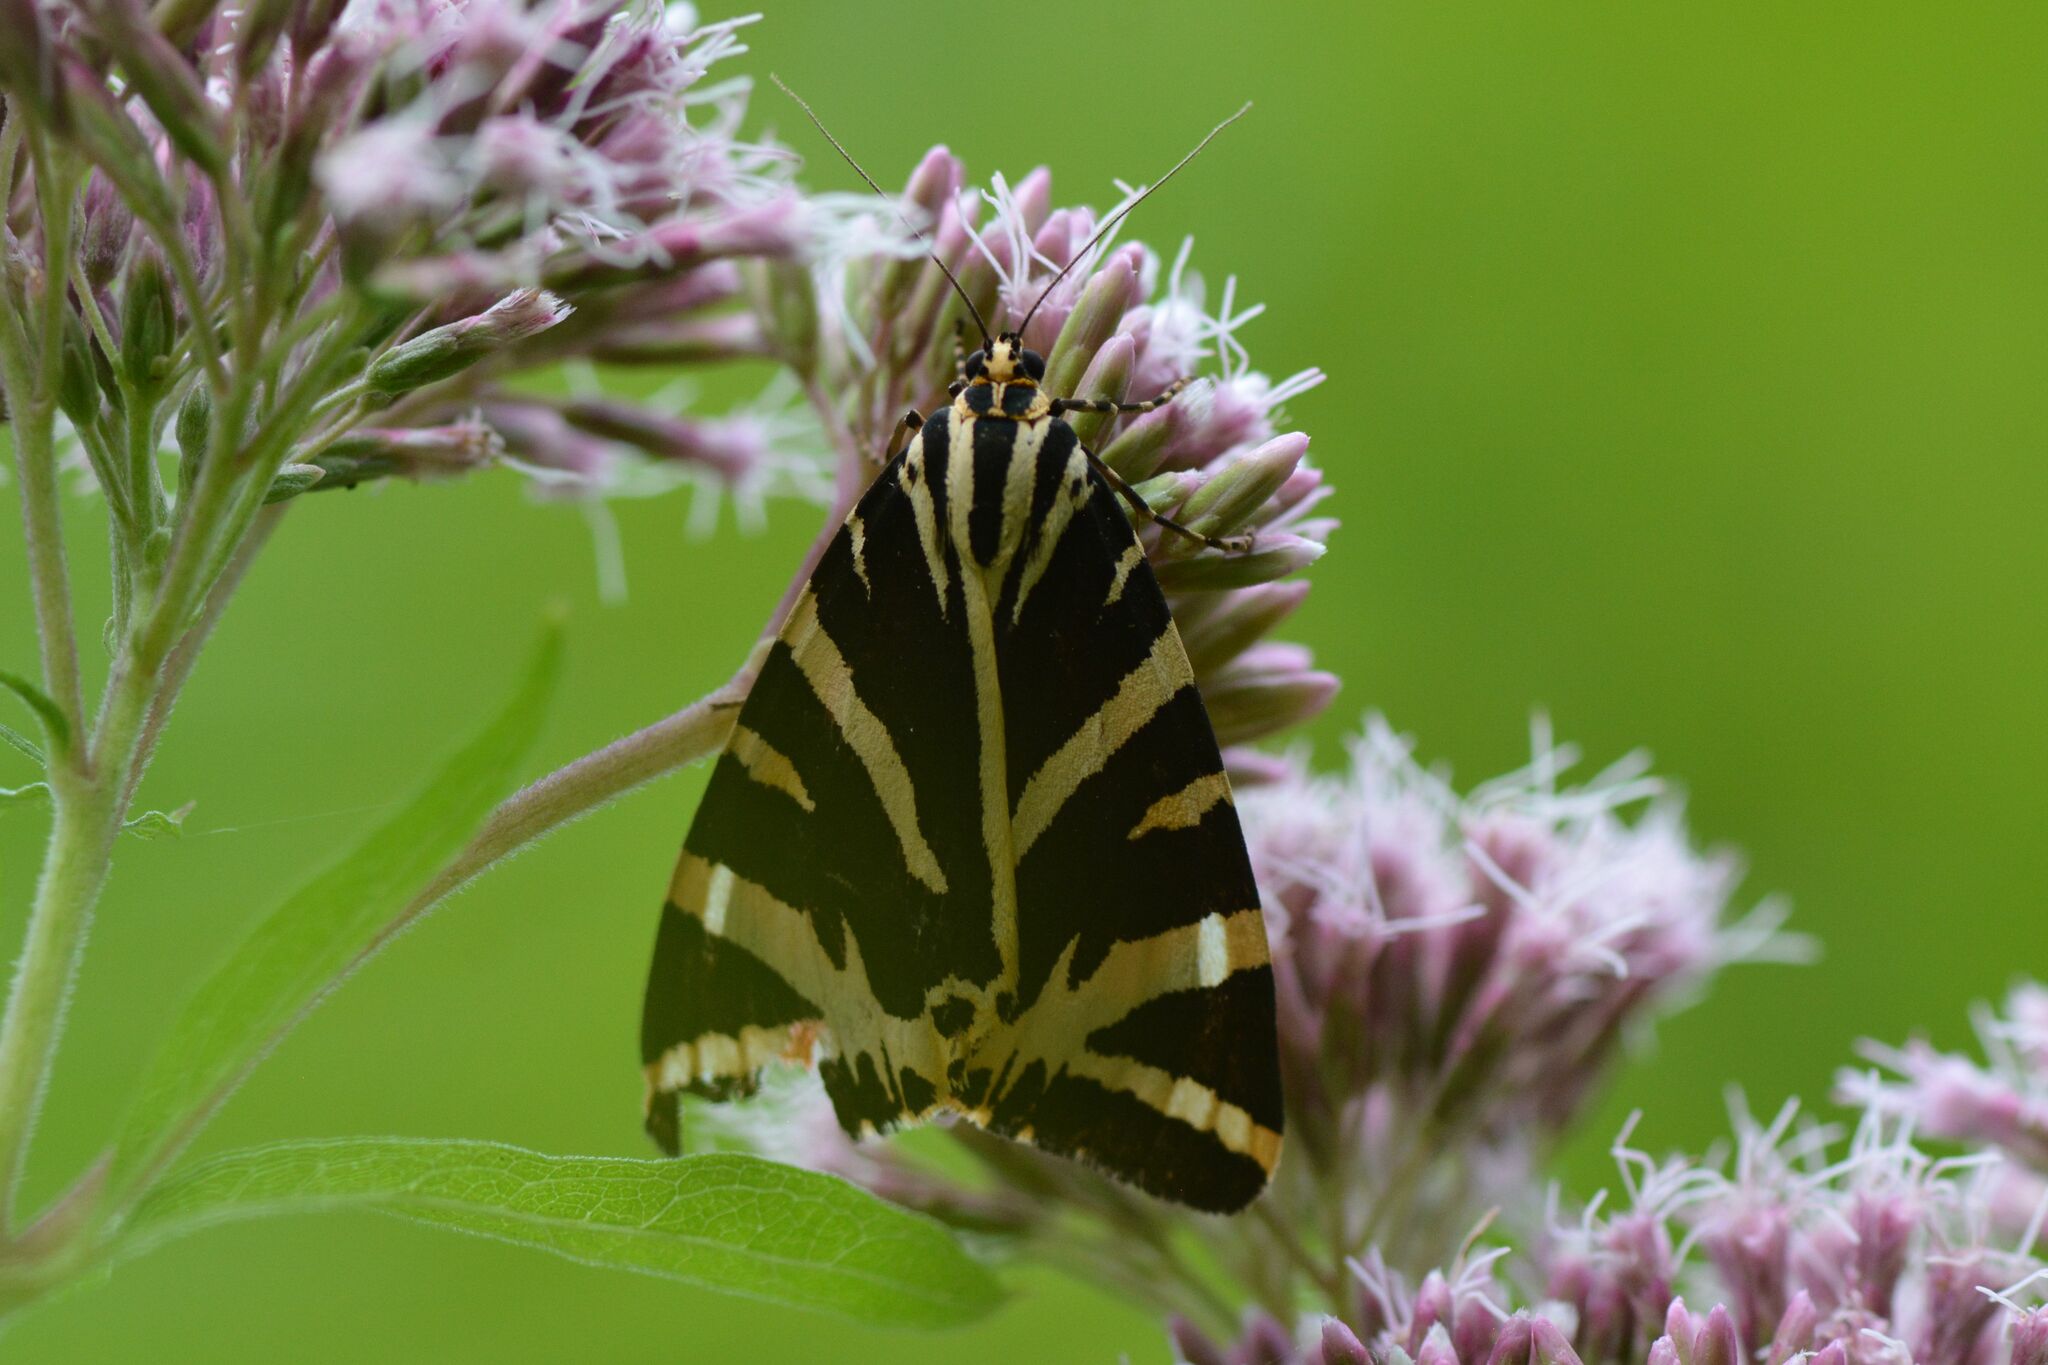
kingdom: Animalia
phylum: Arthropoda
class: Insecta
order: Lepidoptera
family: Erebidae
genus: Euplagia
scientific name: Euplagia quadripunctaria
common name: Jersey tiger
